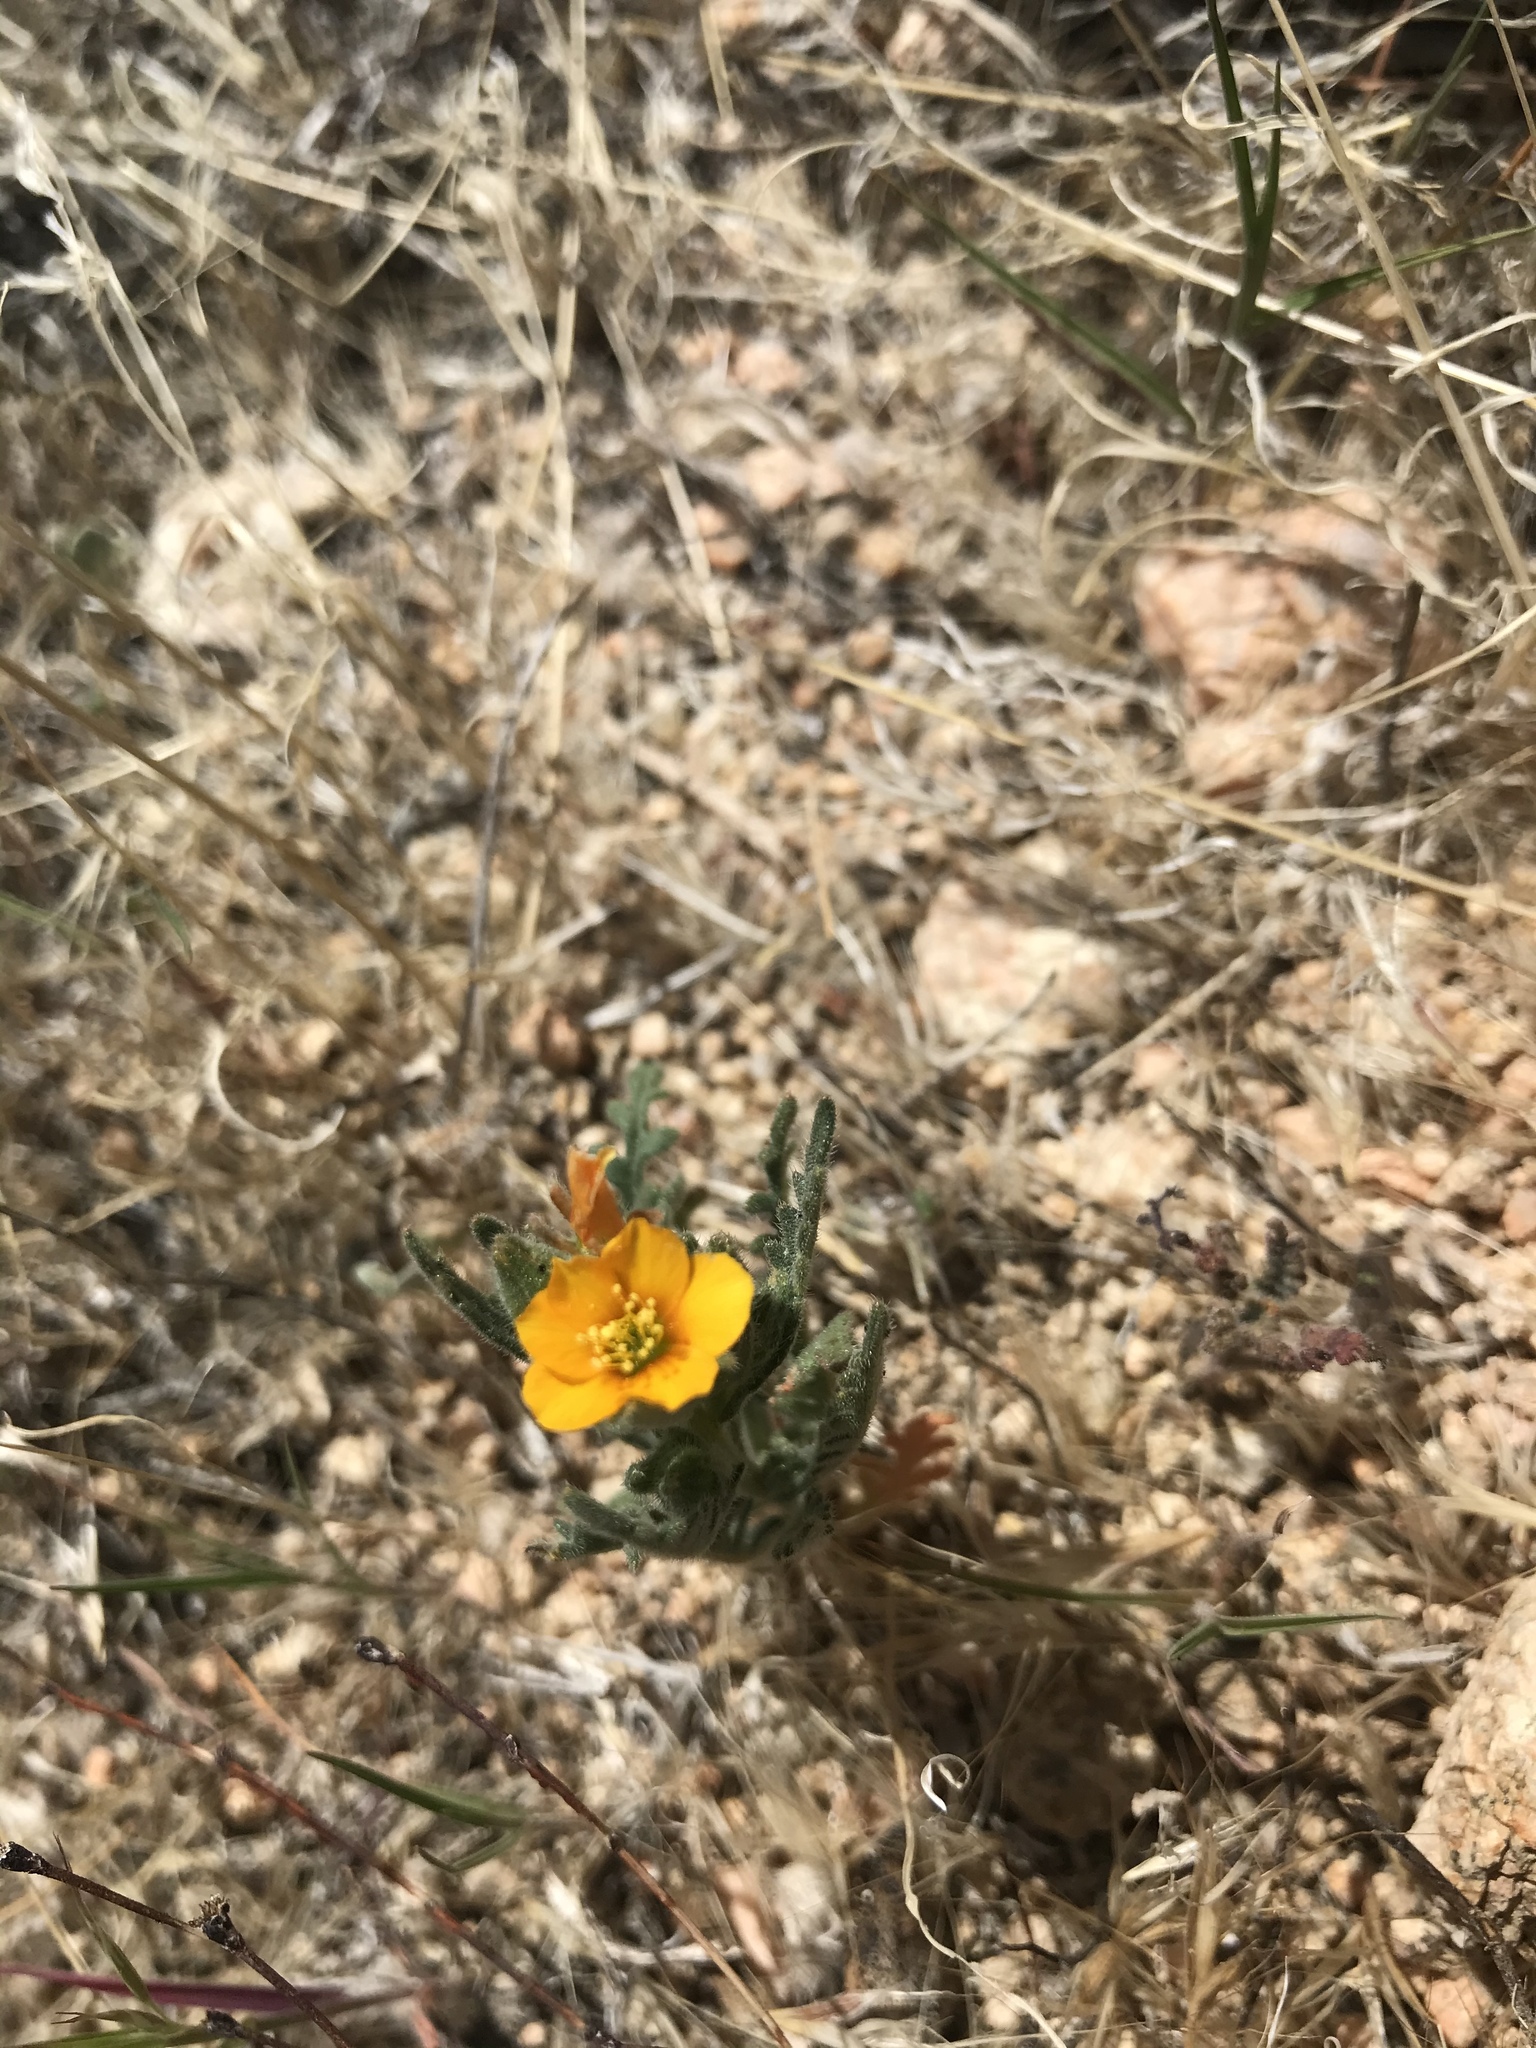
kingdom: Plantae
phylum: Tracheophyta
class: Magnoliopsida
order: Cornales
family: Loasaceae
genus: Mentzelia
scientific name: Mentzelia pectinata
